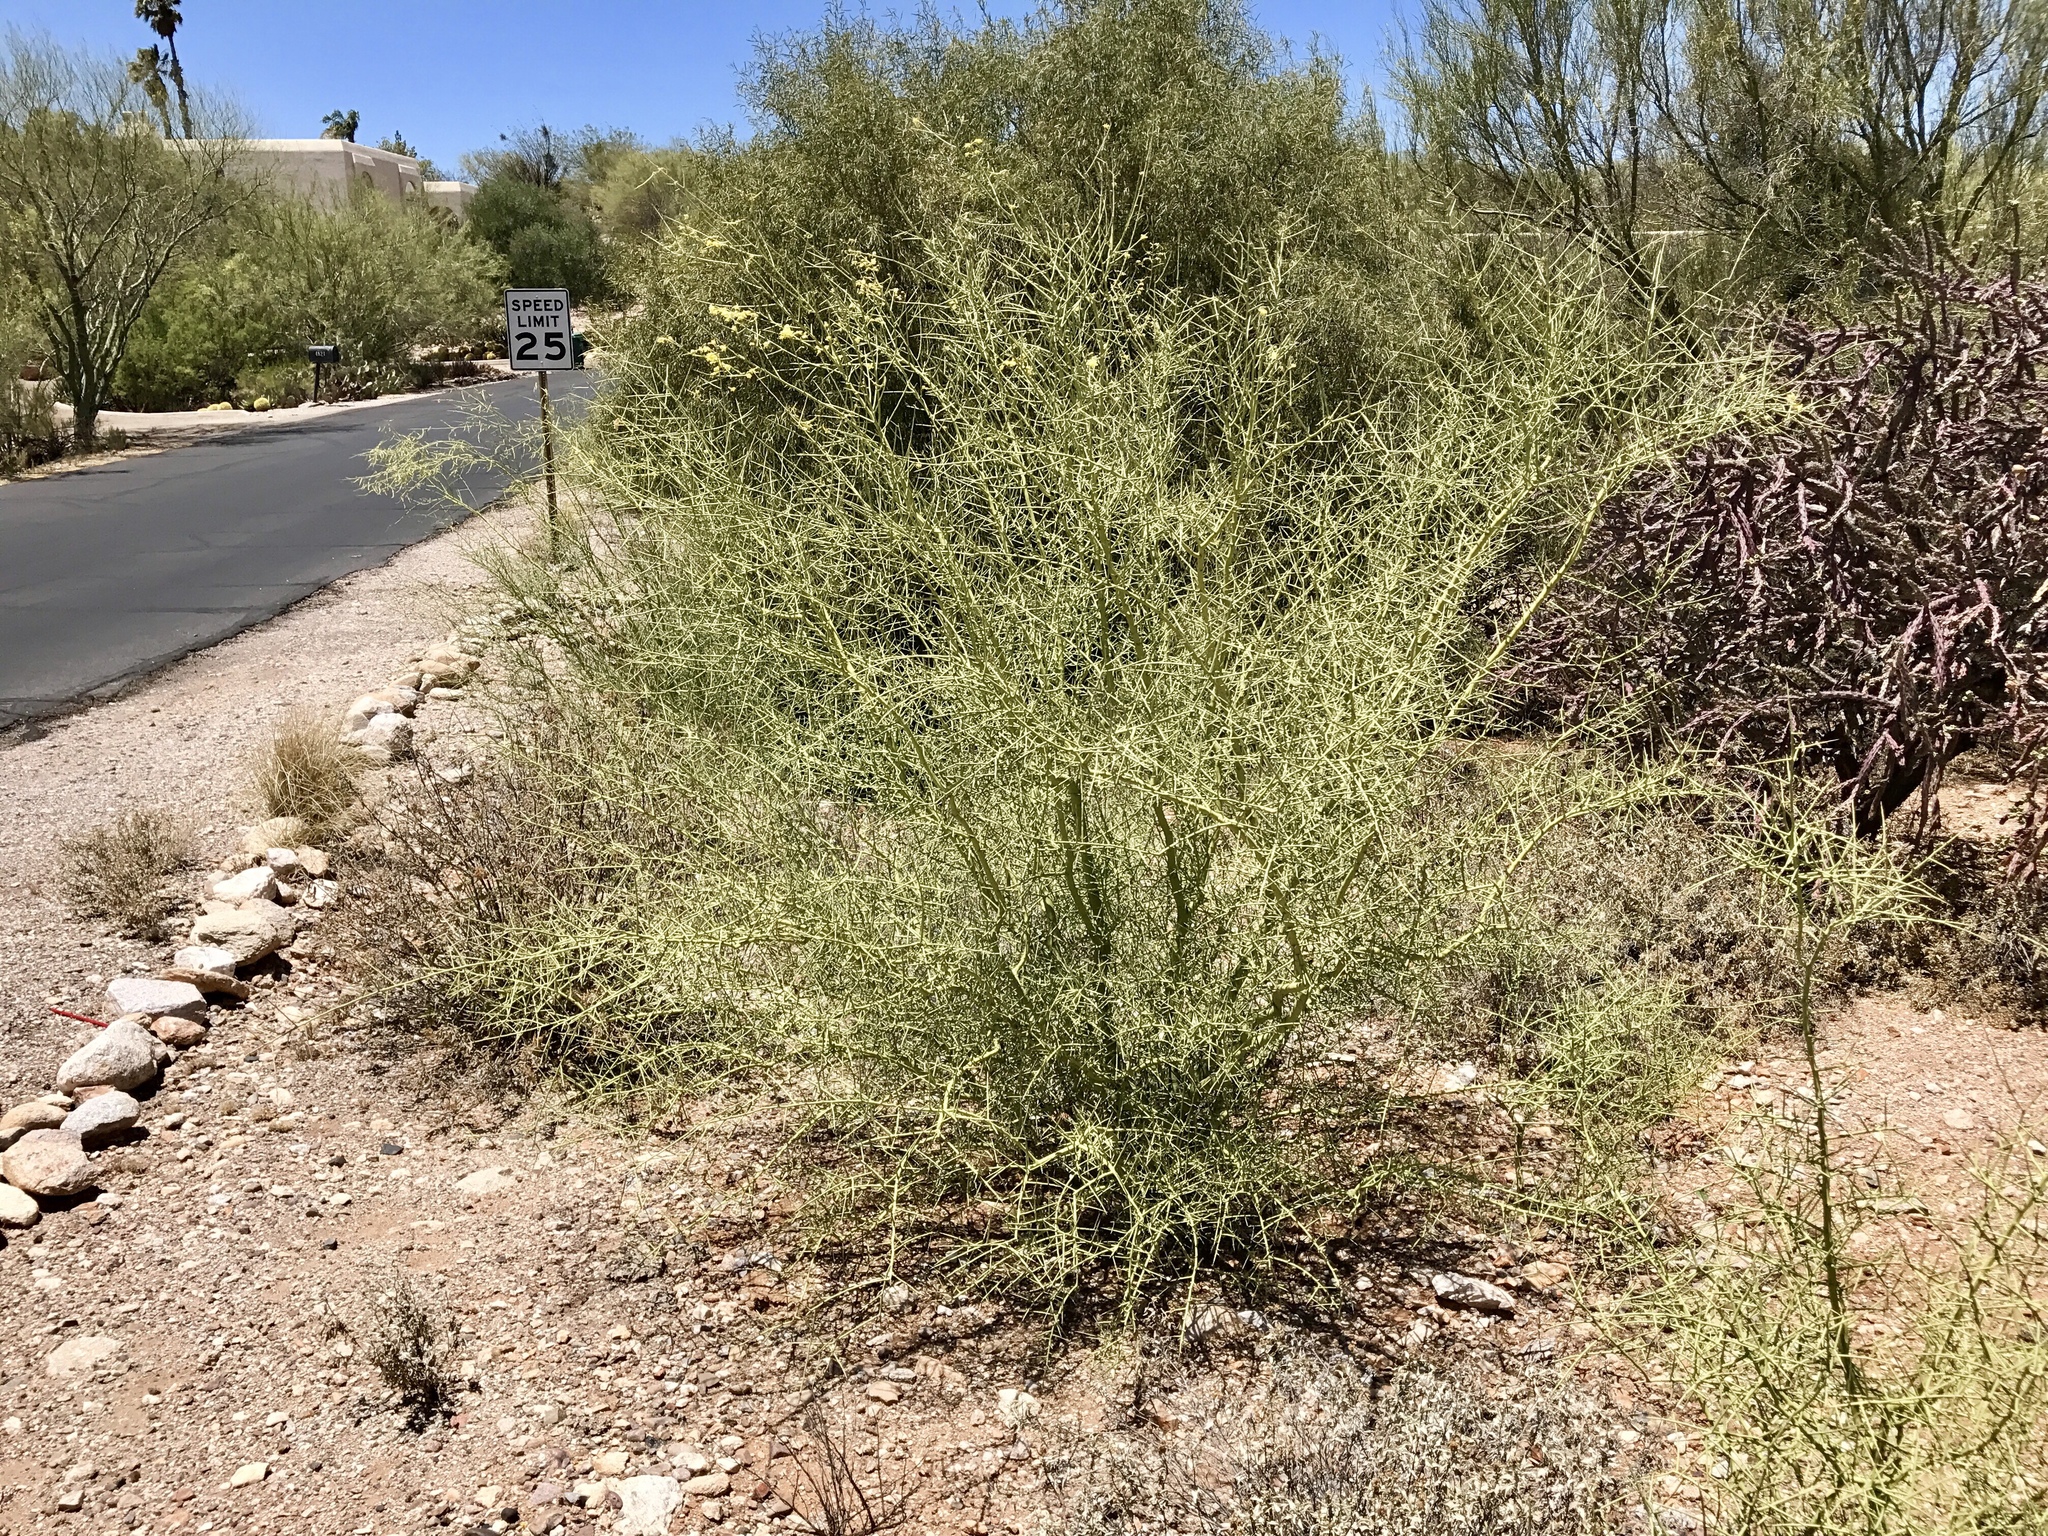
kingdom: Plantae
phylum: Tracheophyta
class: Magnoliopsida
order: Fabales
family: Fabaceae
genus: Parkinsonia
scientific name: Parkinsonia microphylla
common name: Yellow paloverde
